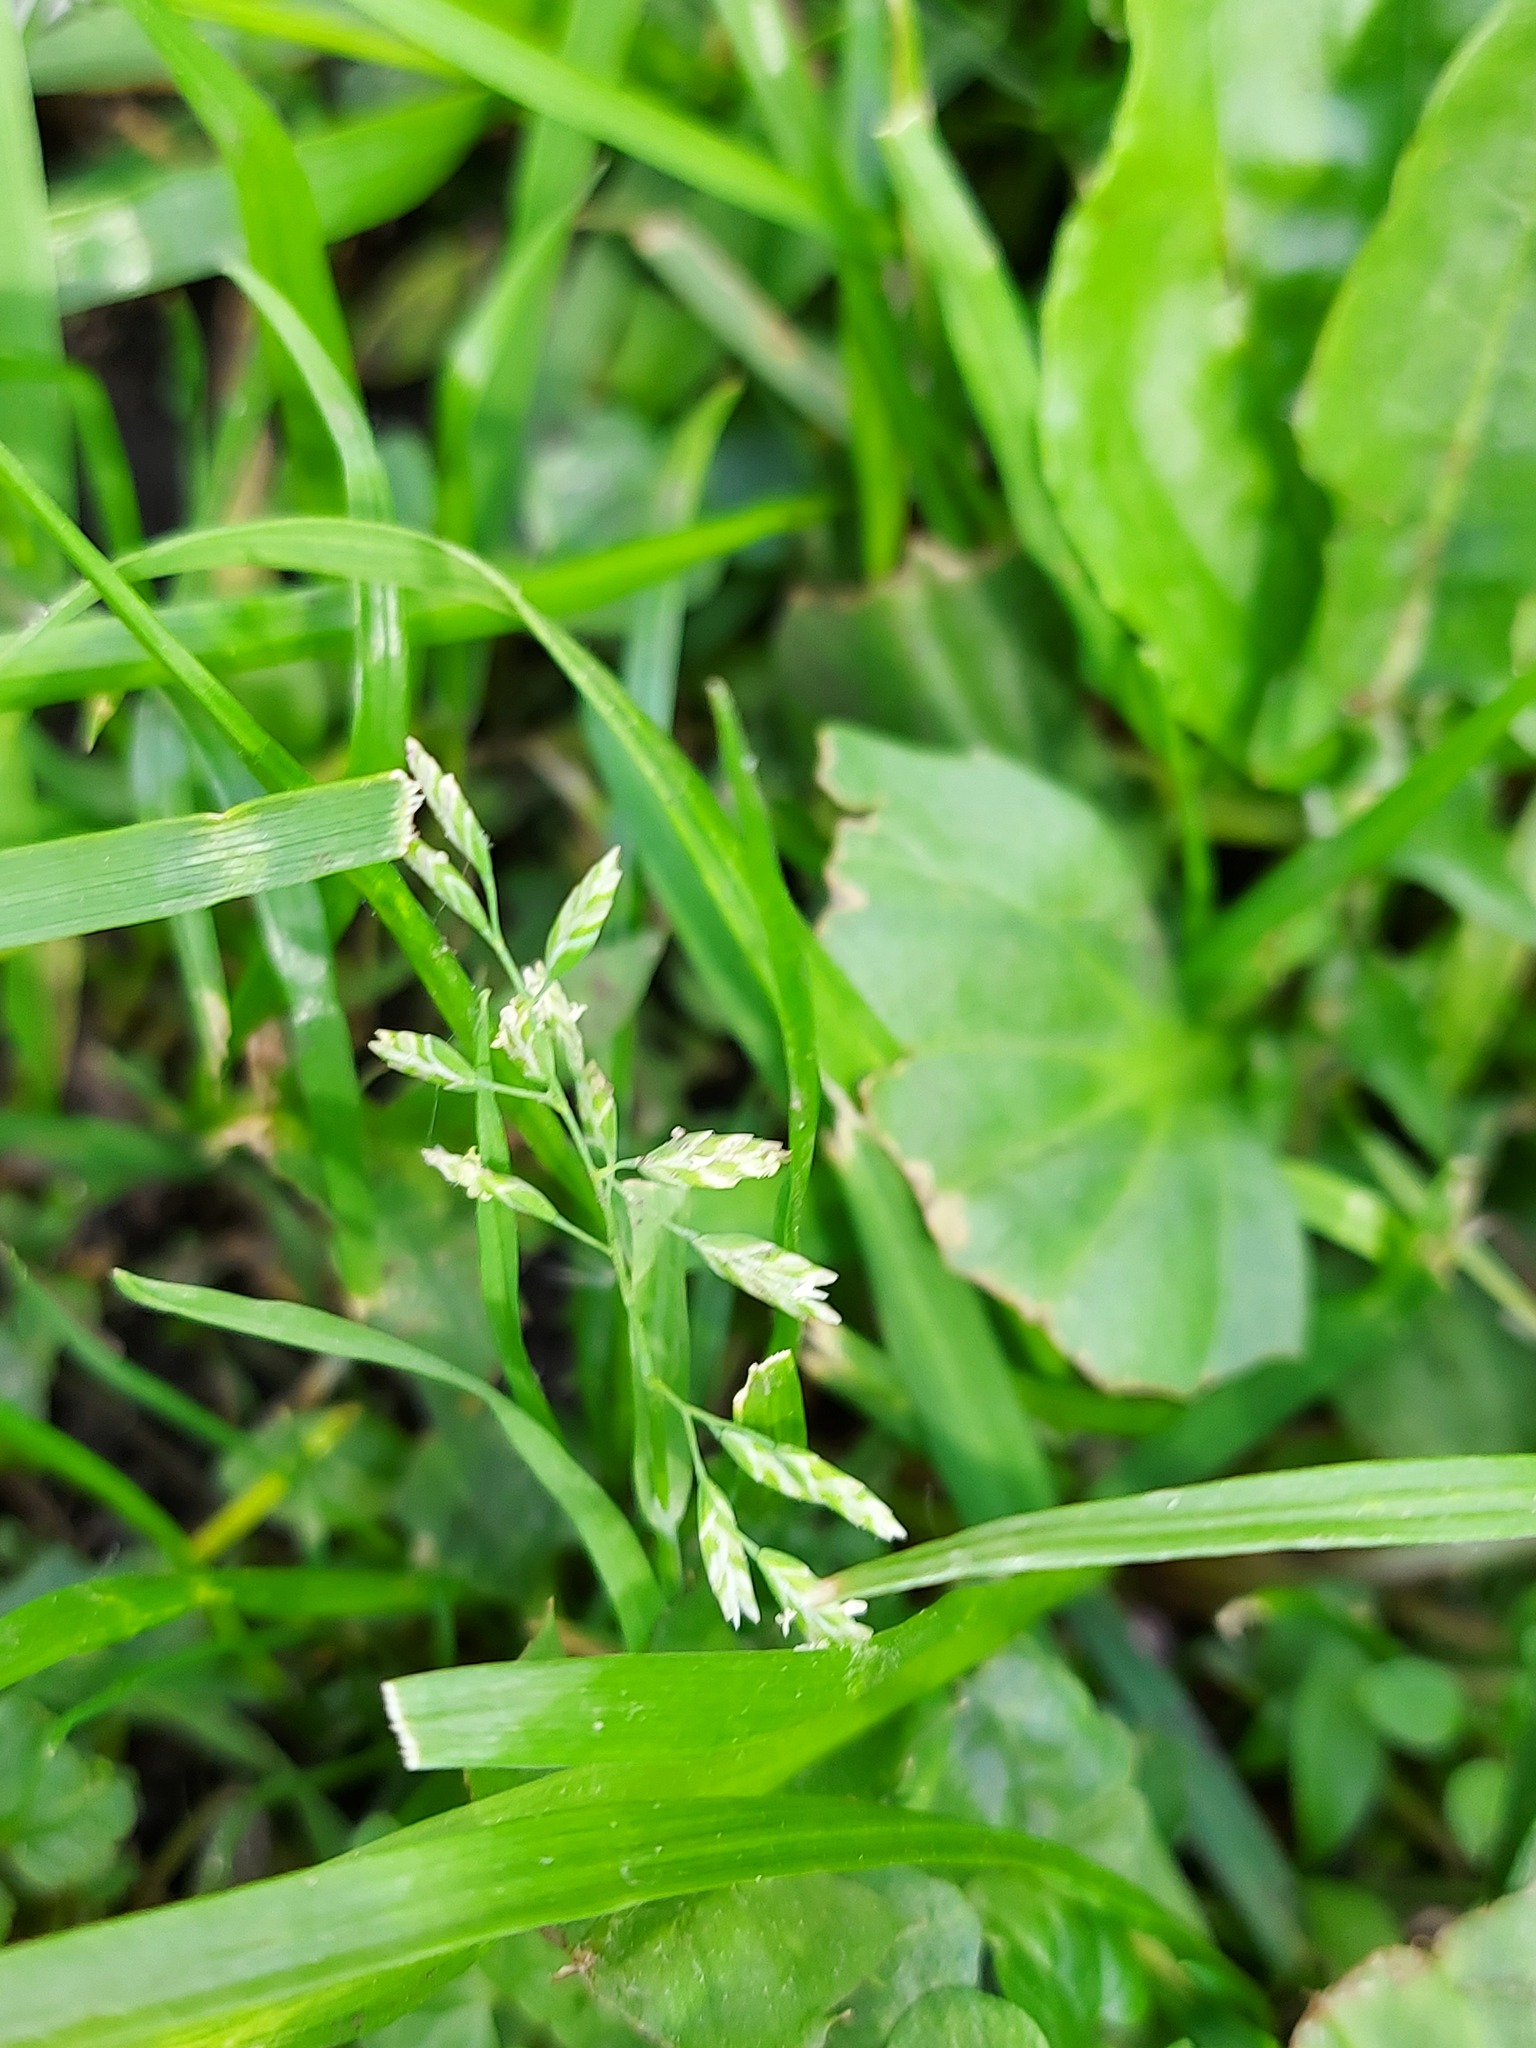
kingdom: Plantae
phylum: Tracheophyta
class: Liliopsida
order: Poales
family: Poaceae
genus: Poa
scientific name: Poa annua
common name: Annual bluegrass
